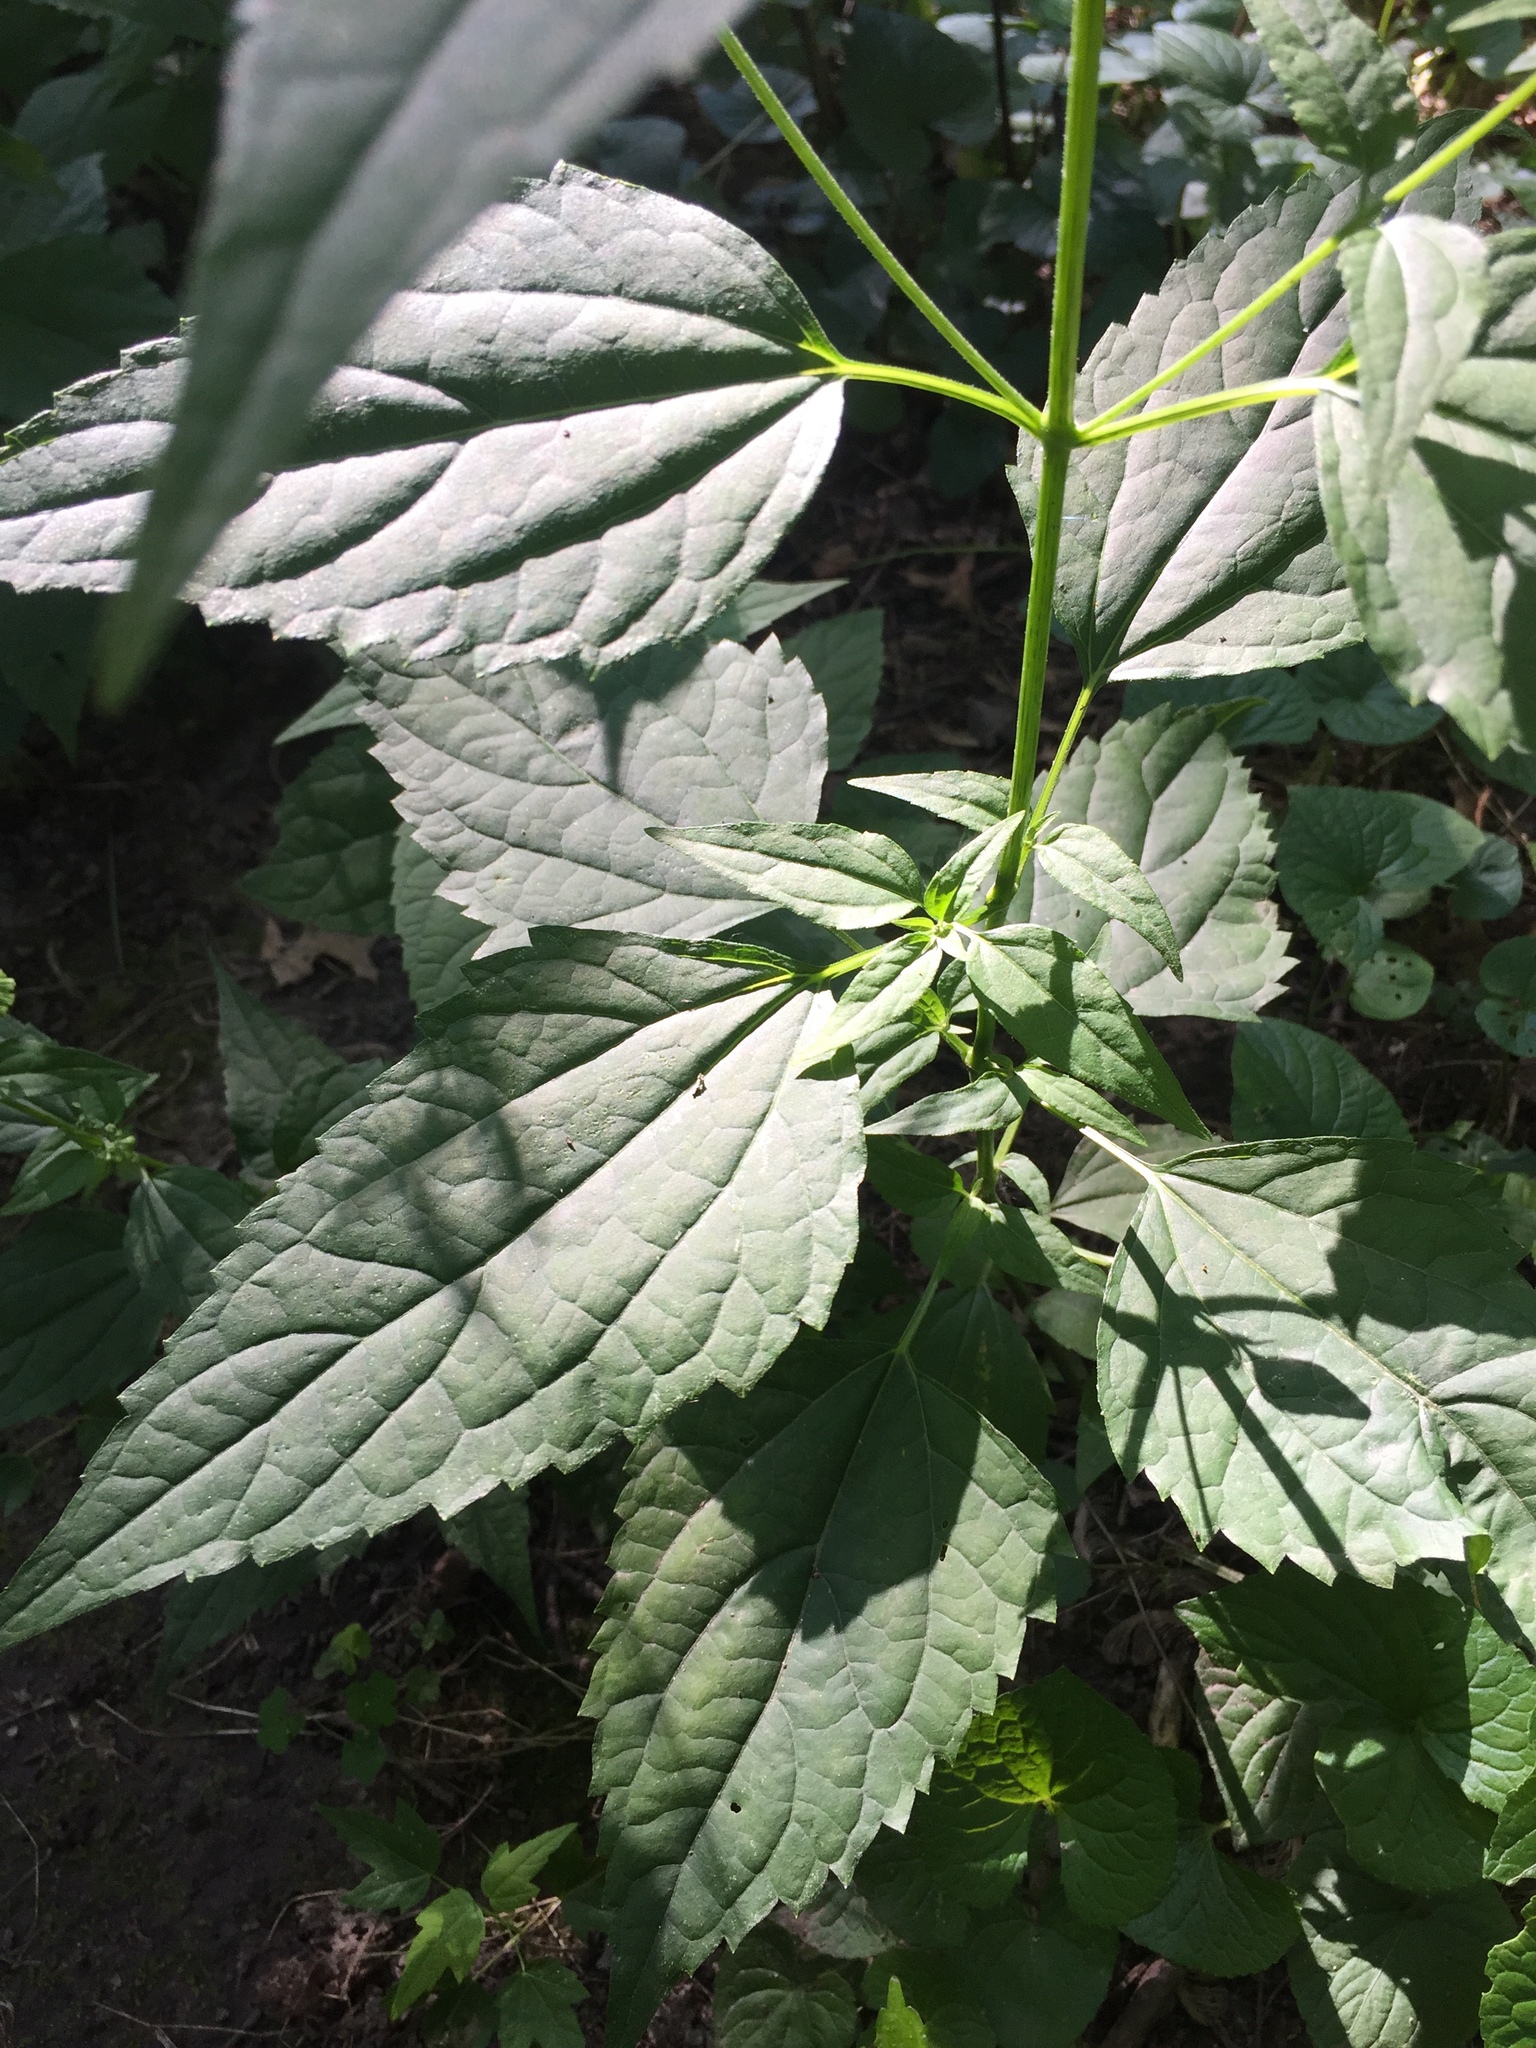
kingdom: Plantae
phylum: Tracheophyta
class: Magnoliopsida
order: Asterales
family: Asteraceae
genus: Ageratina
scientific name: Ageratina altissima
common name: White snakeroot
